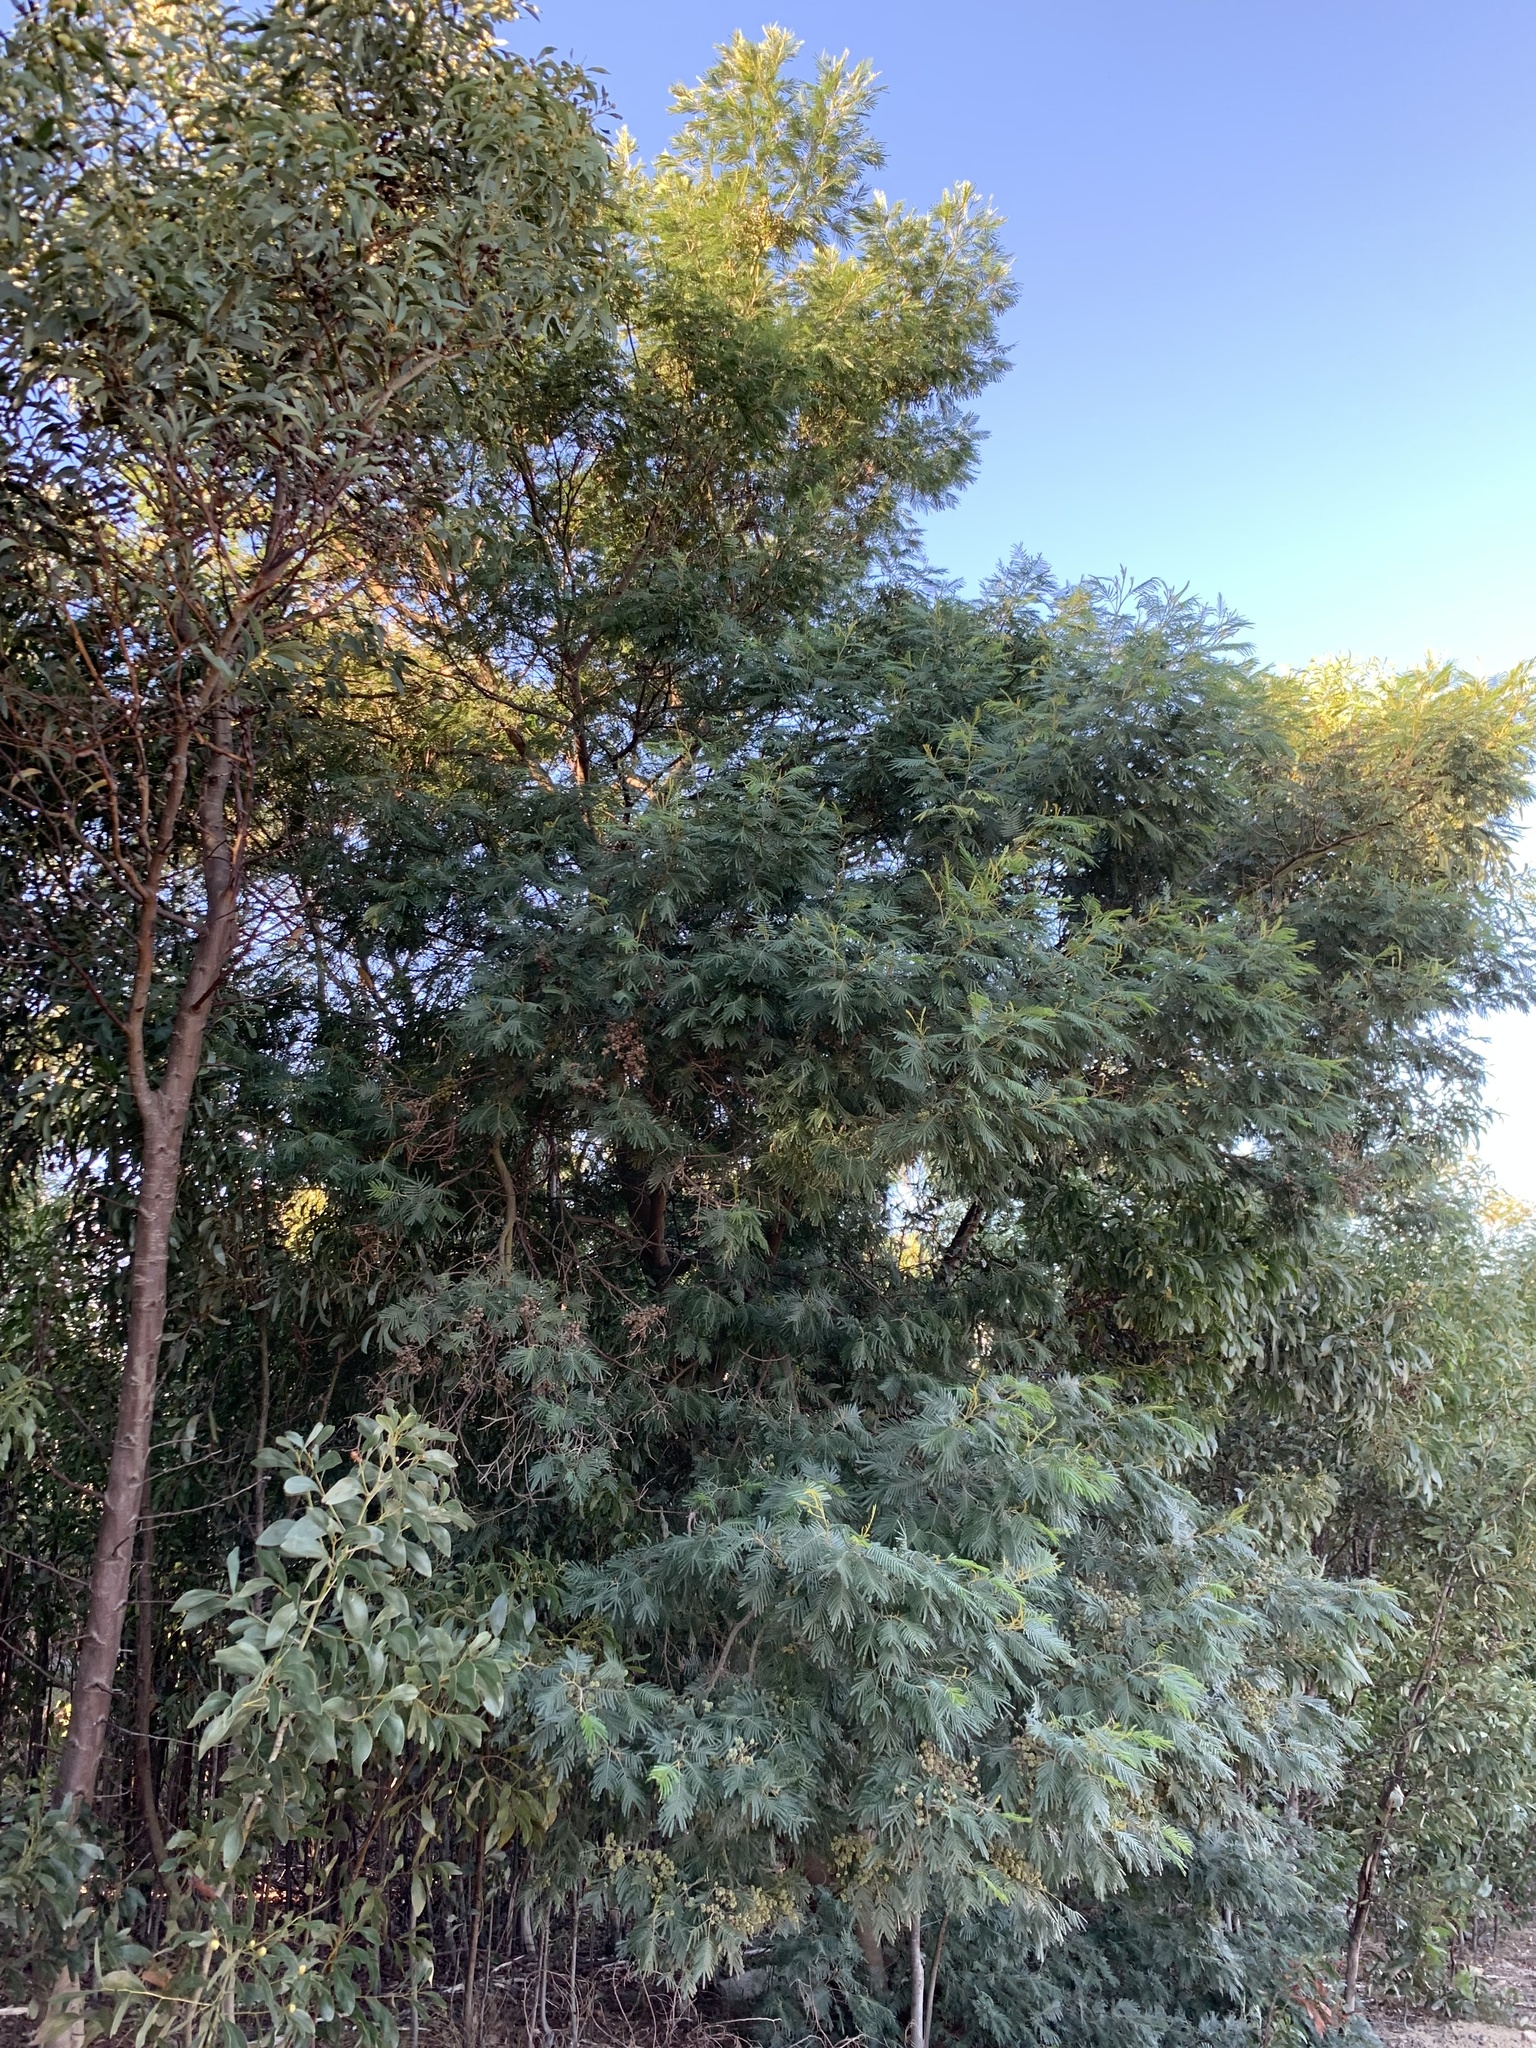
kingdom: Plantae
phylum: Tracheophyta
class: Magnoliopsida
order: Fabales
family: Fabaceae
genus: Acacia
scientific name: Acacia mearnsii
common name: Black wattle
